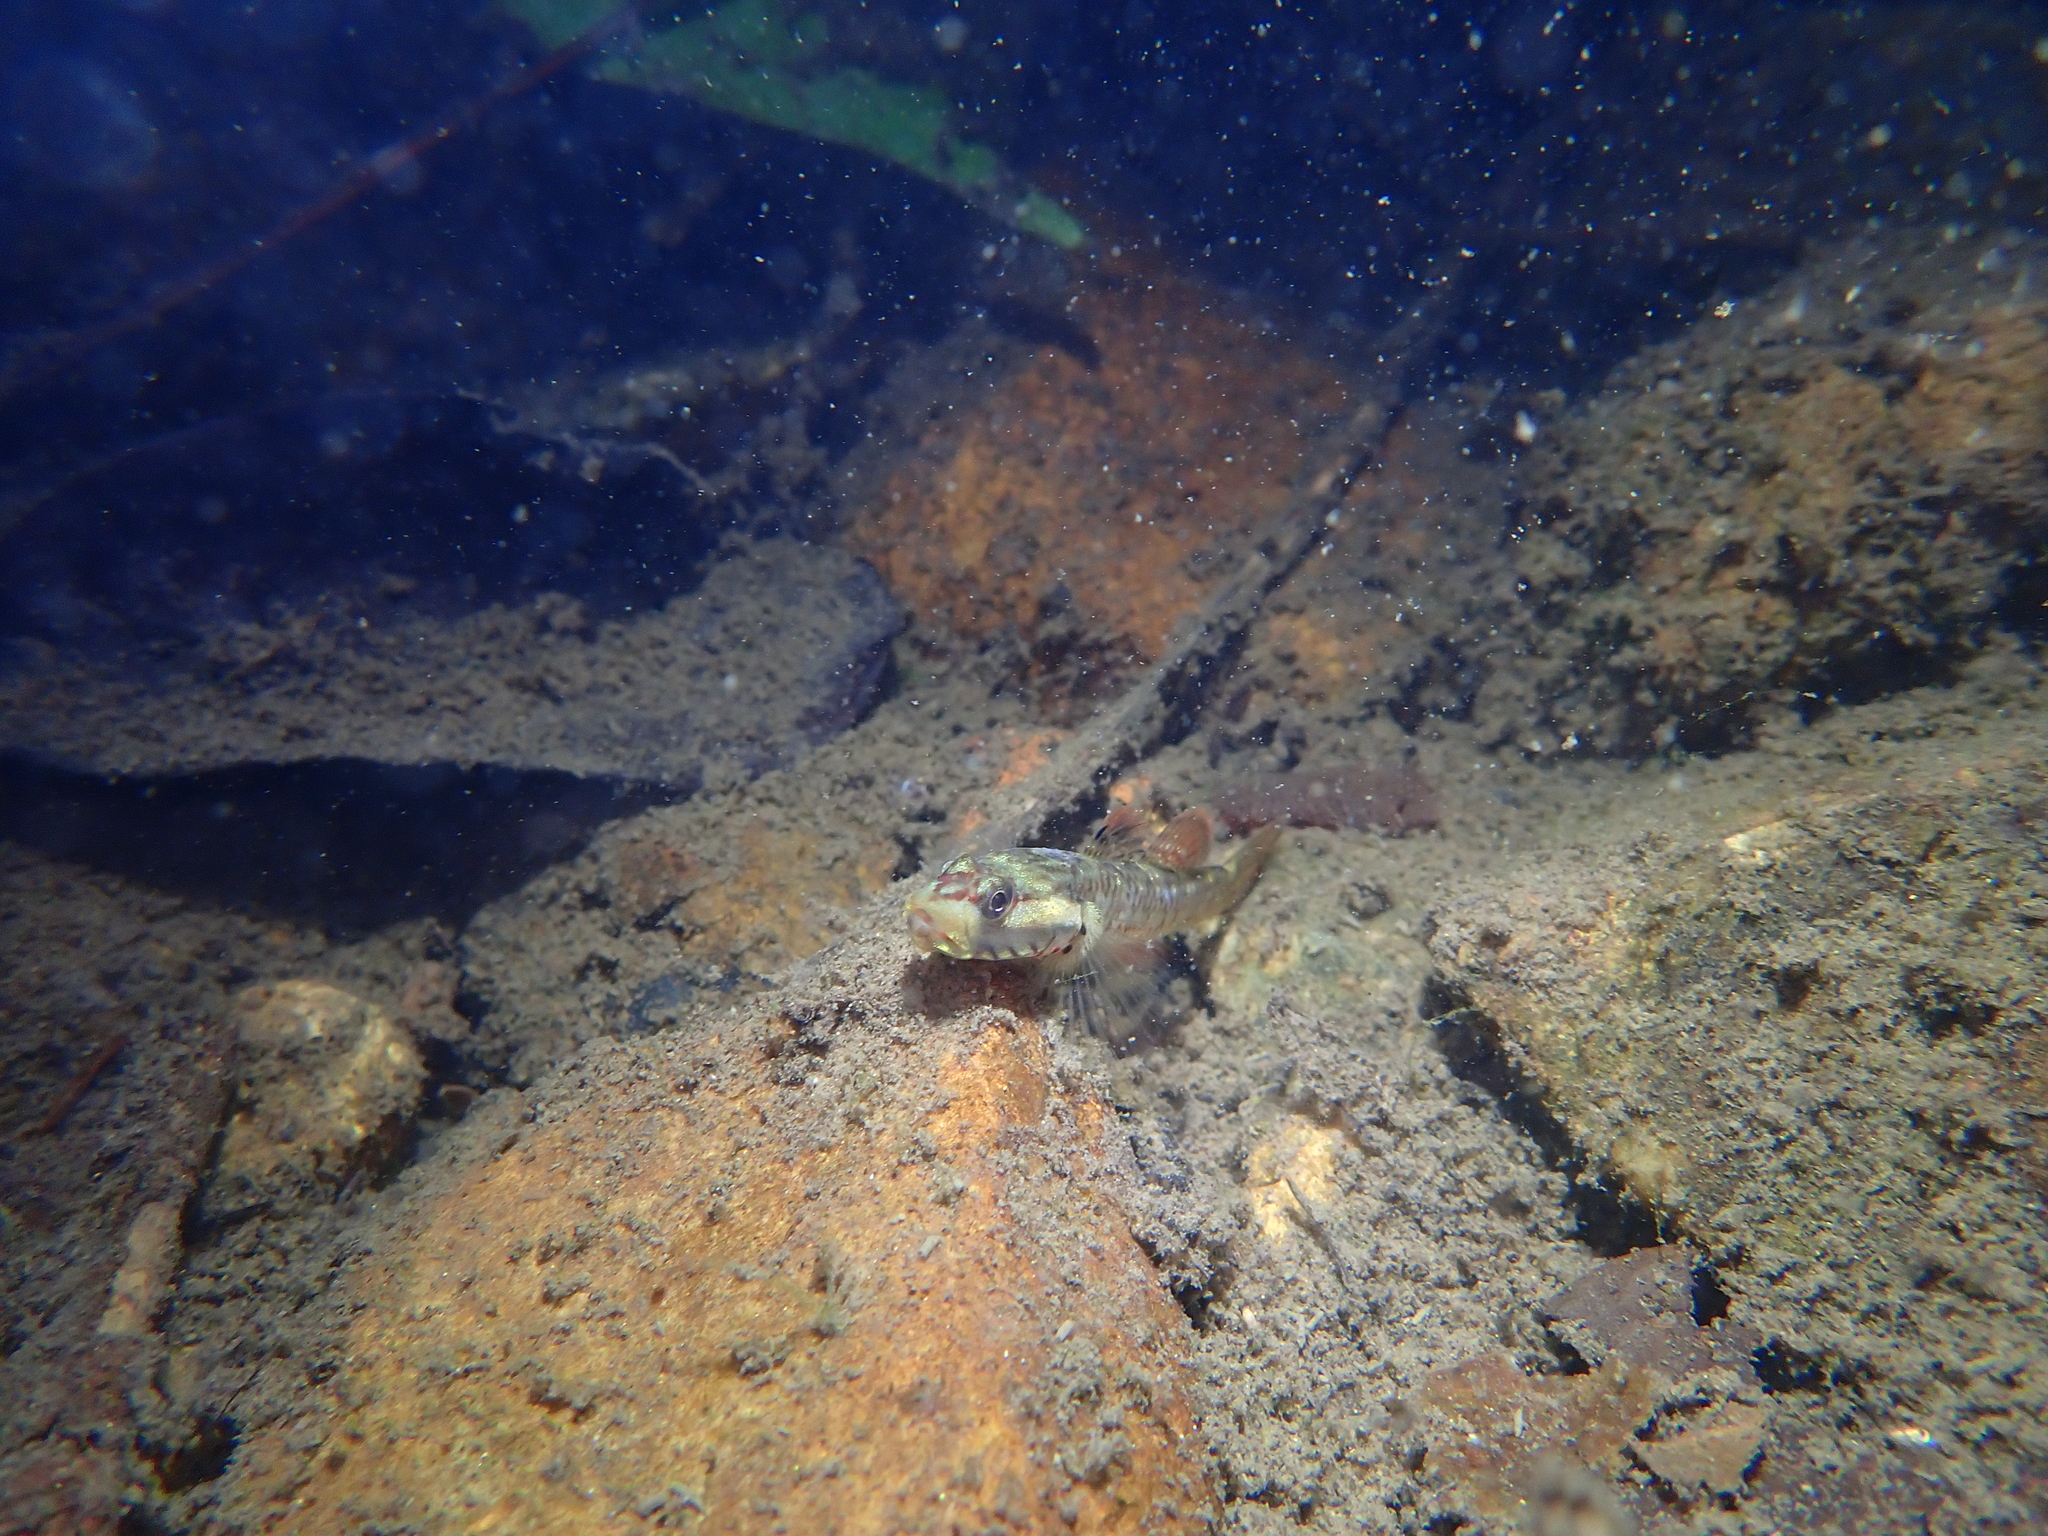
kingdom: Animalia
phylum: Chordata
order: Perciformes
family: Gobiidae
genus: Rhinogobius
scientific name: Rhinogobius duospilus
